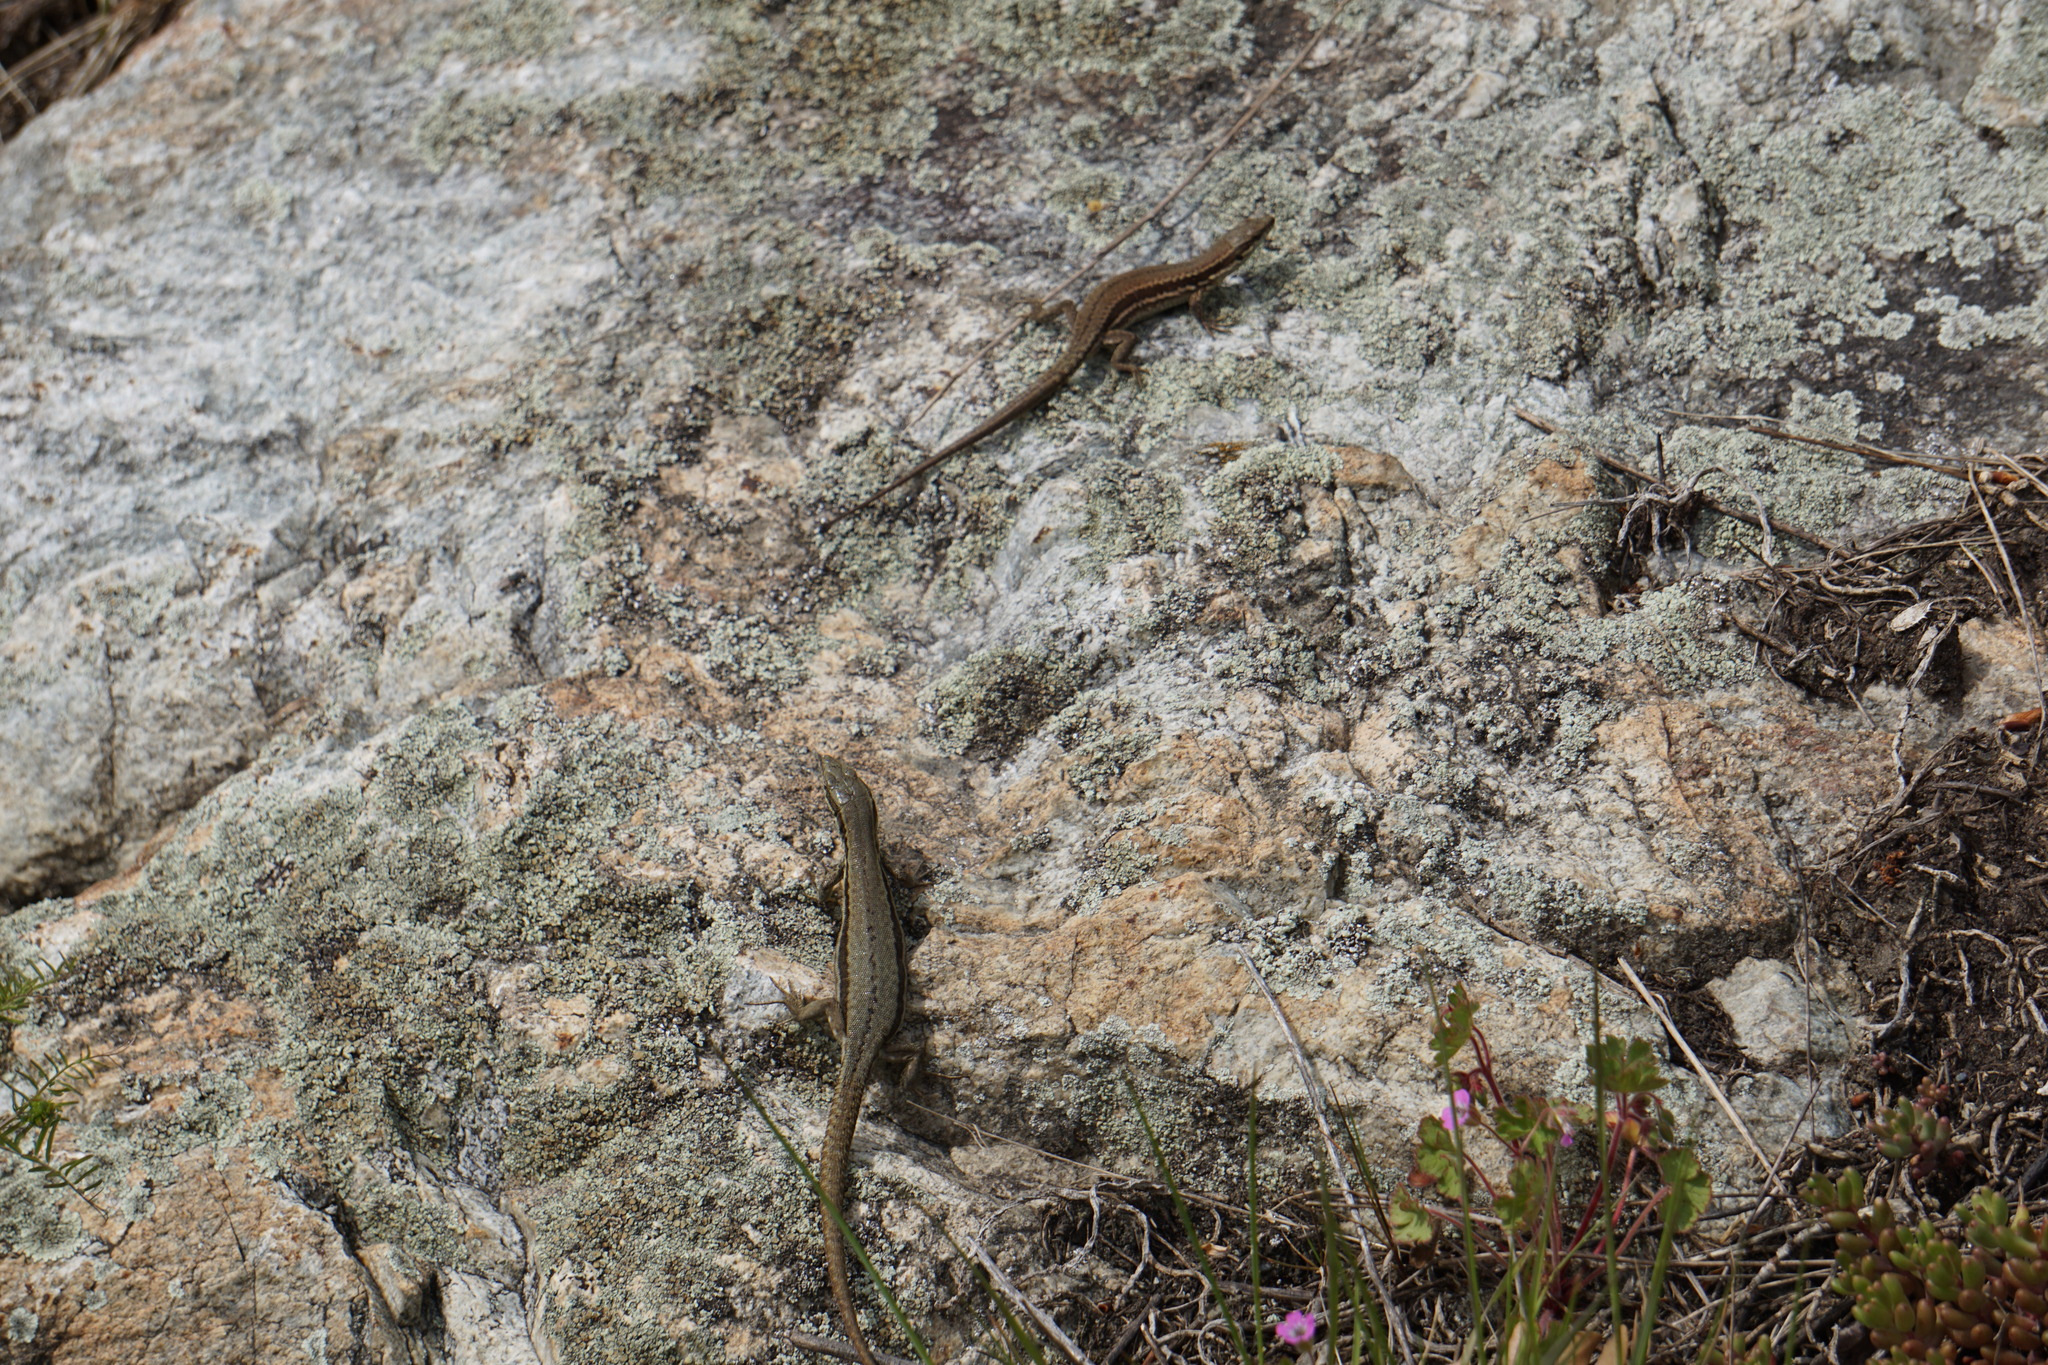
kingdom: Animalia
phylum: Chordata
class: Squamata
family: Lacertidae
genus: Podarcis
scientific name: Podarcis muralis
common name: Common wall lizard
